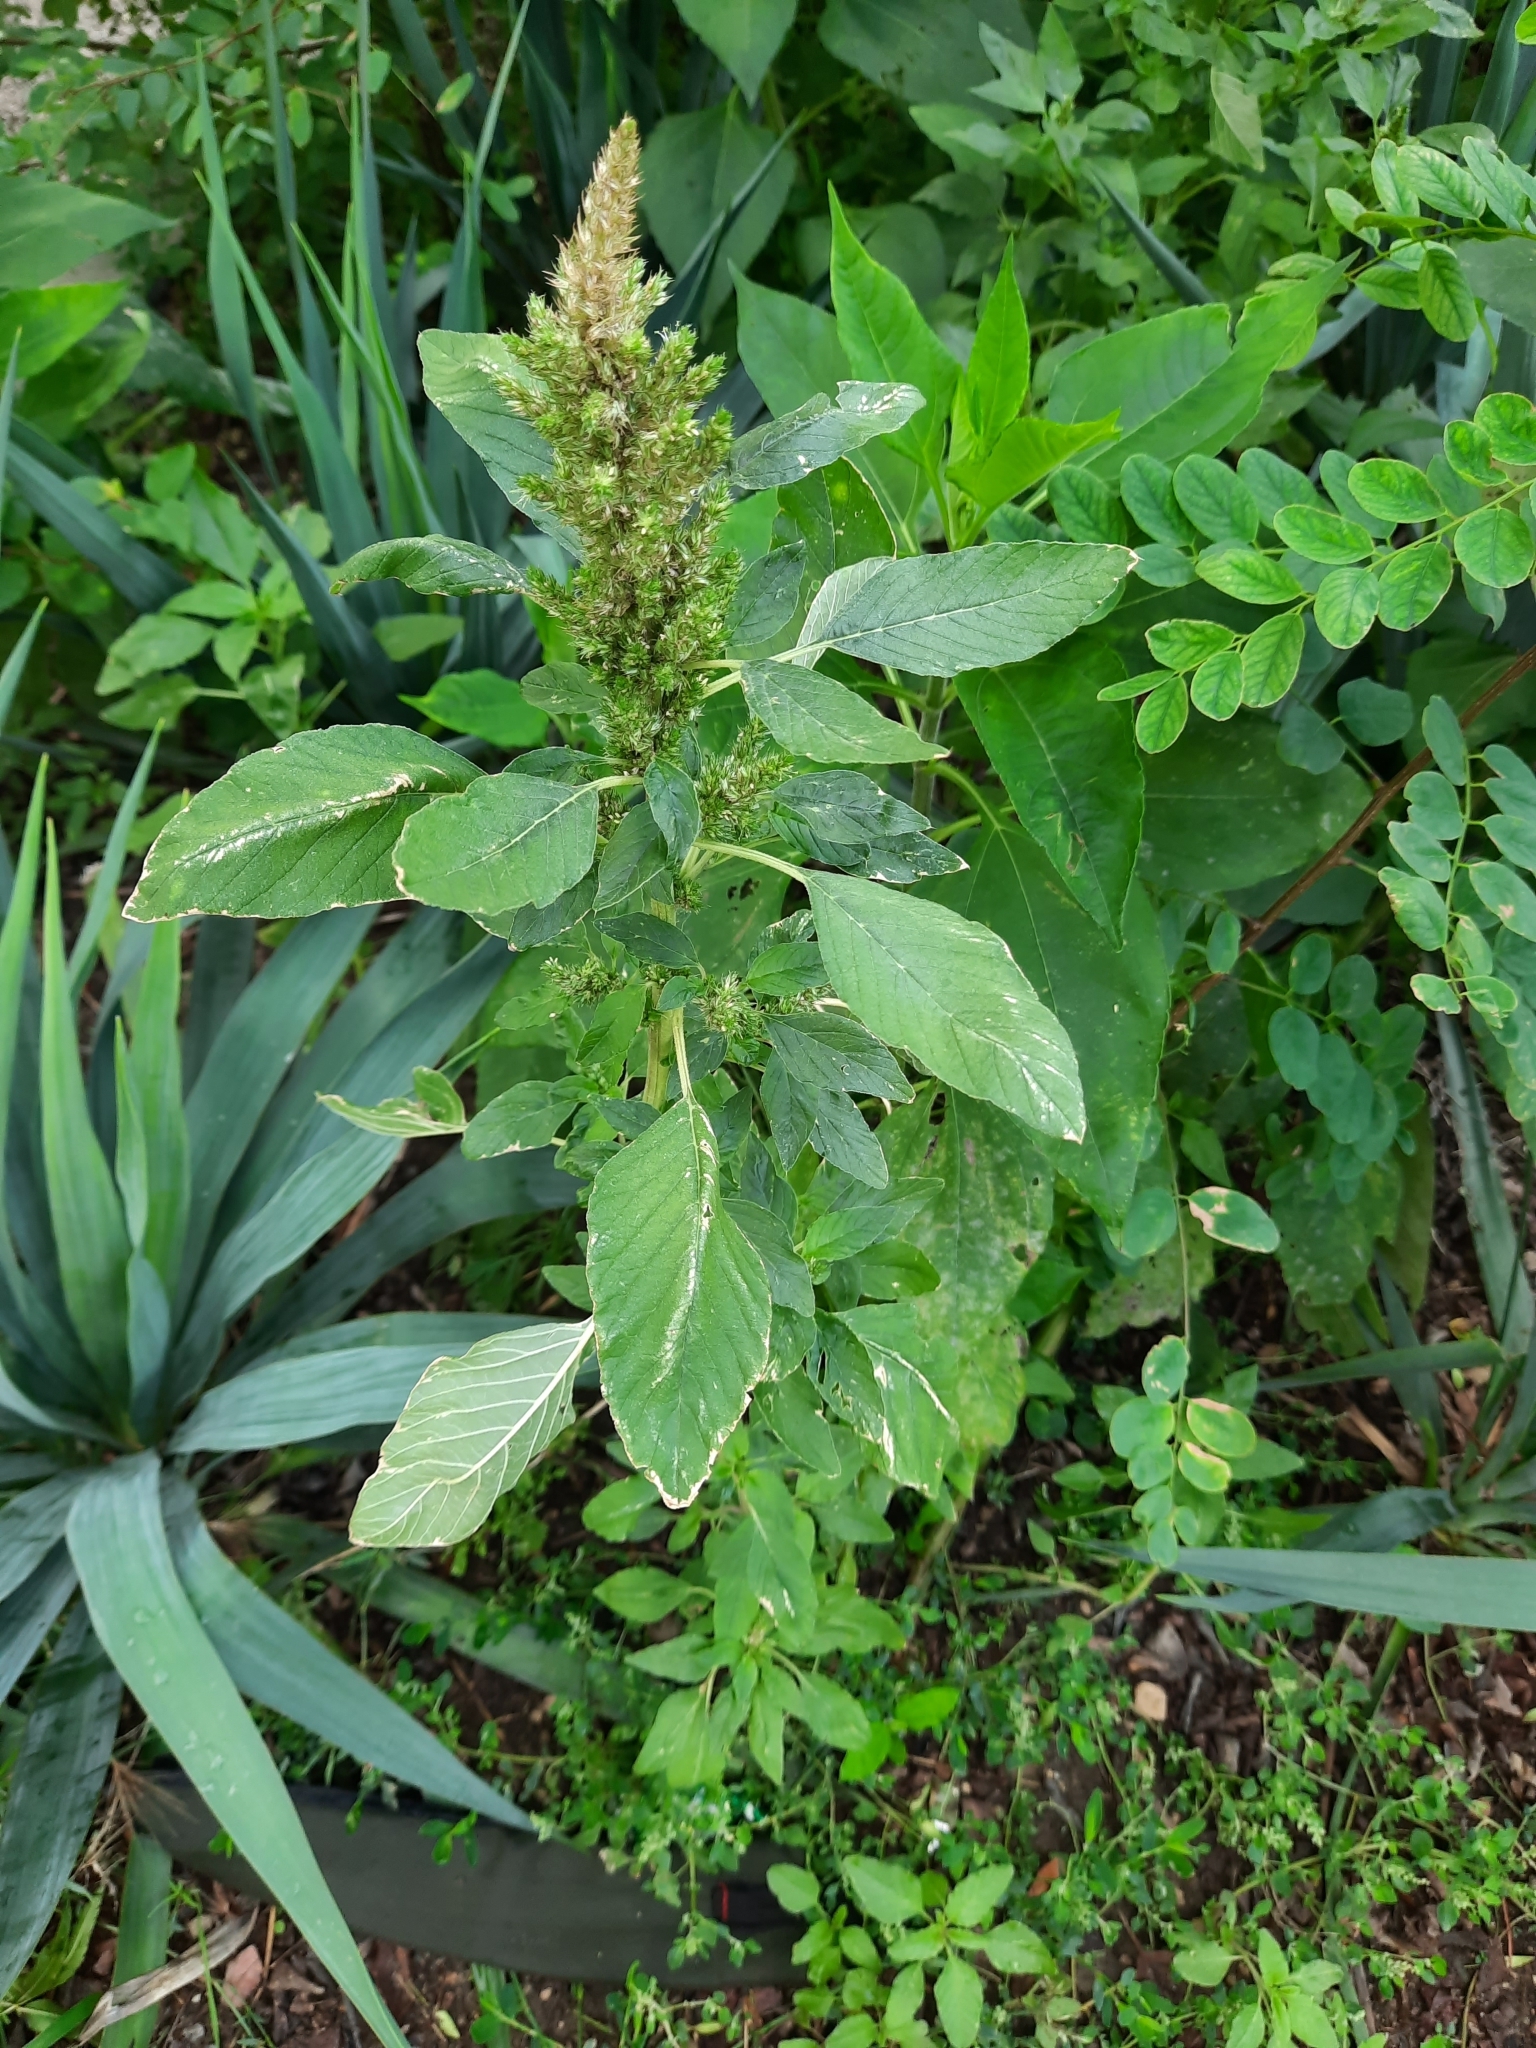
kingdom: Plantae
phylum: Tracheophyta
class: Magnoliopsida
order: Caryophyllales
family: Amaranthaceae
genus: Amaranthus
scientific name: Amaranthus retroflexus
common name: Redroot amaranth
